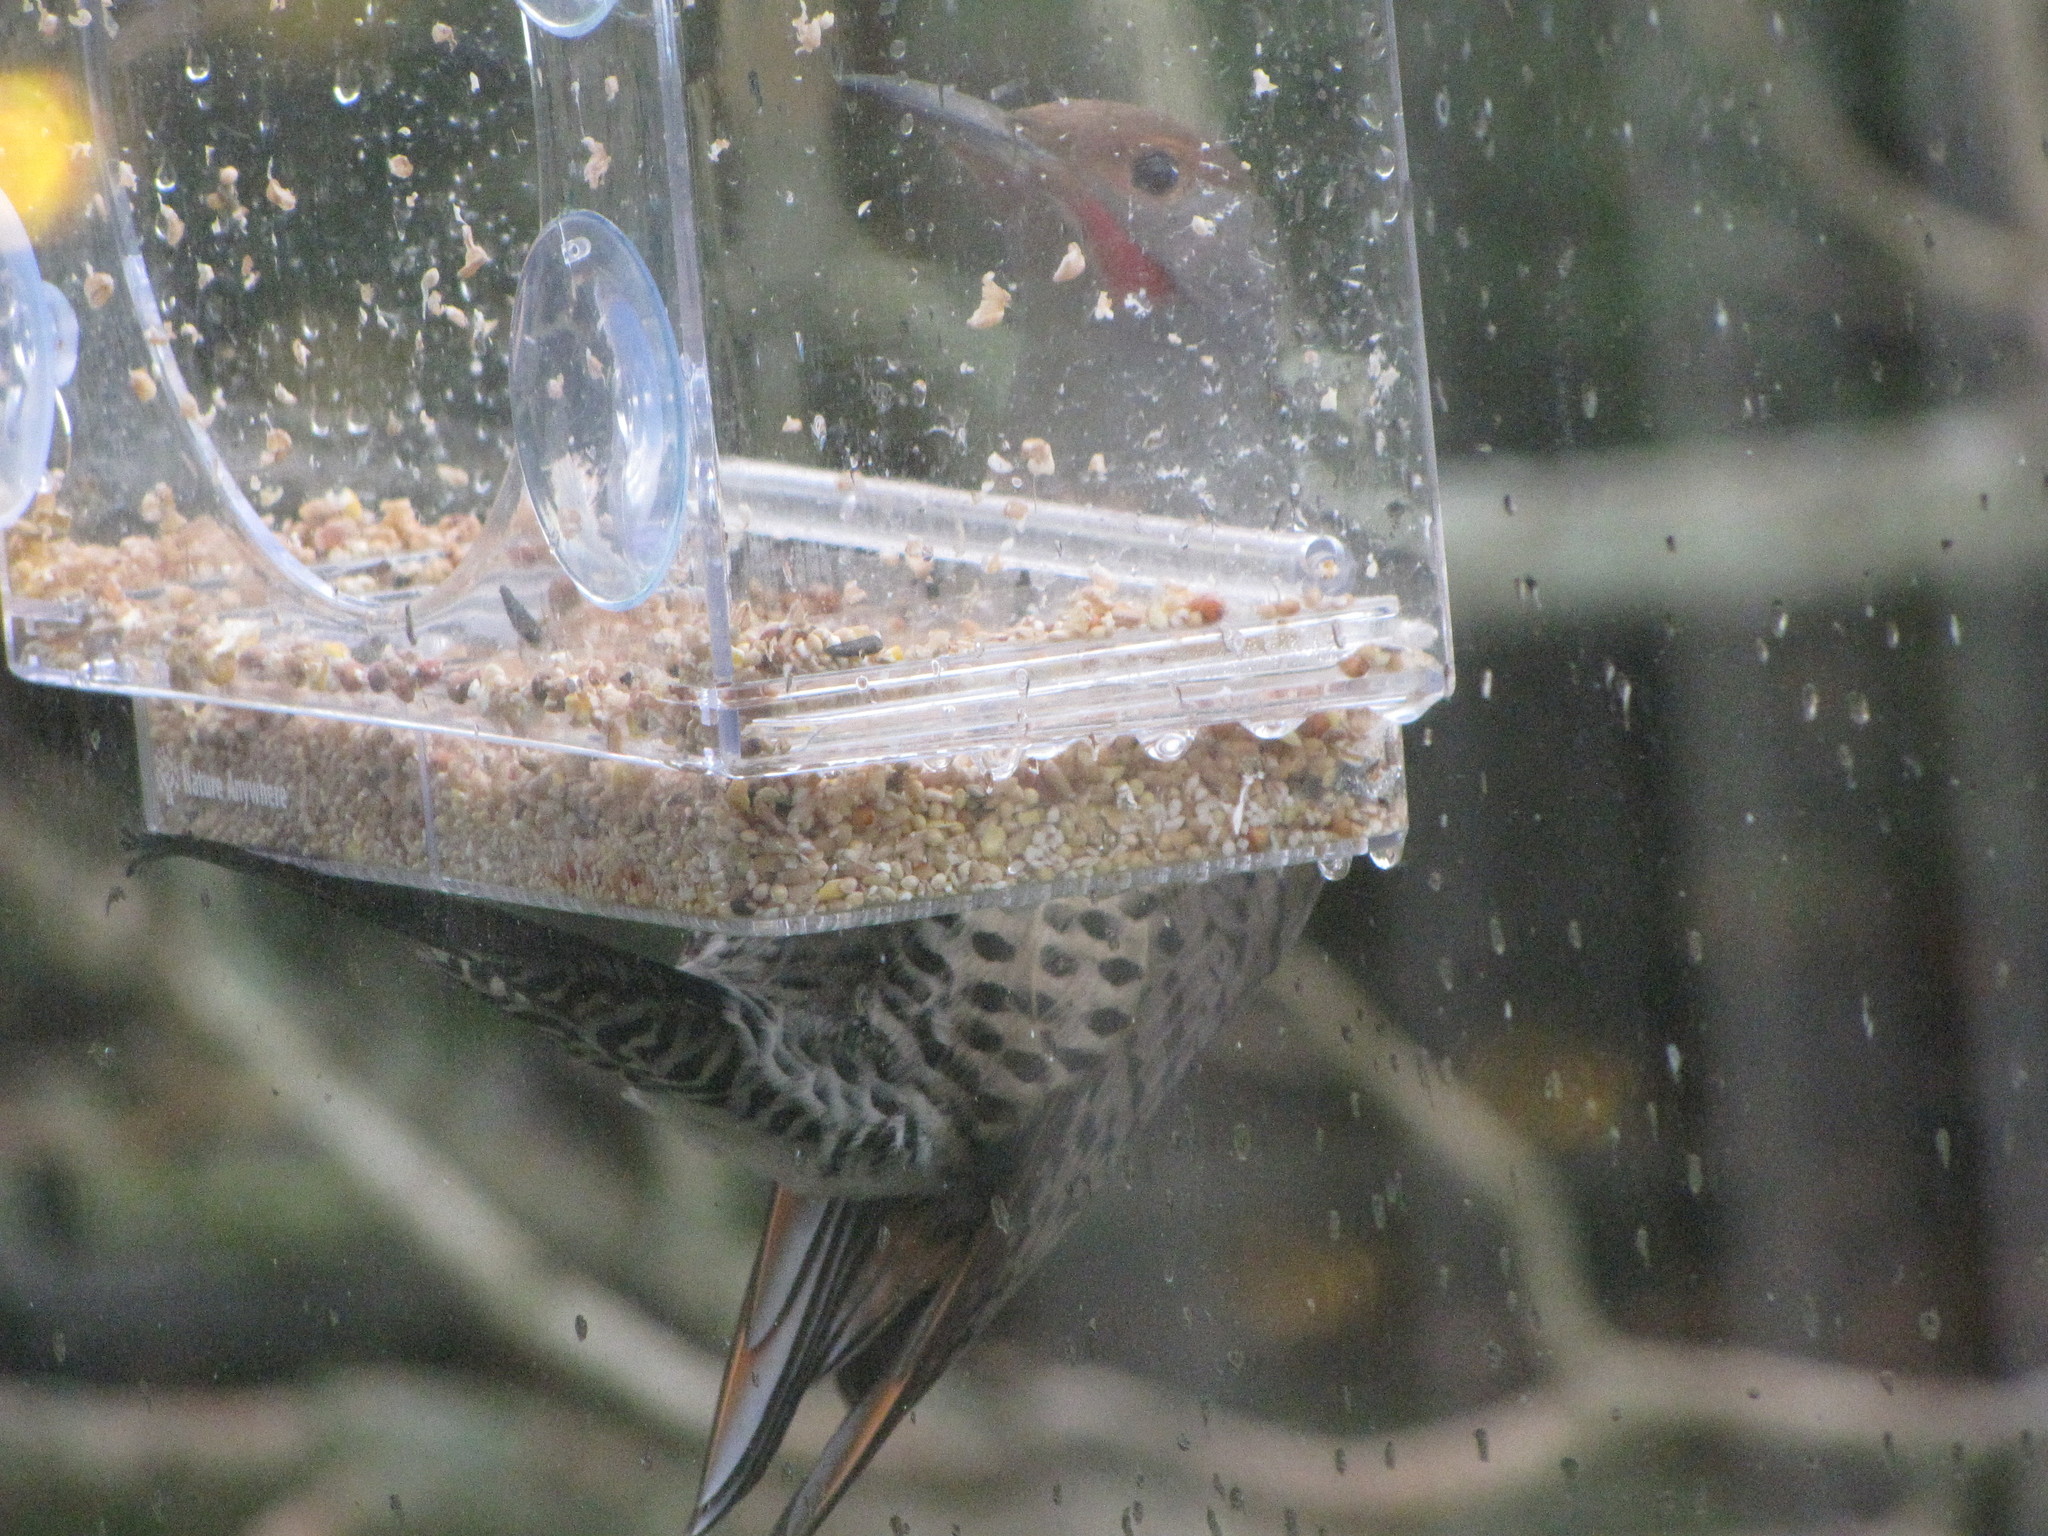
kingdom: Animalia
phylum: Chordata
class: Aves
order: Piciformes
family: Picidae
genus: Colaptes
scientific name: Colaptes auratus
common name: Northern flicker
